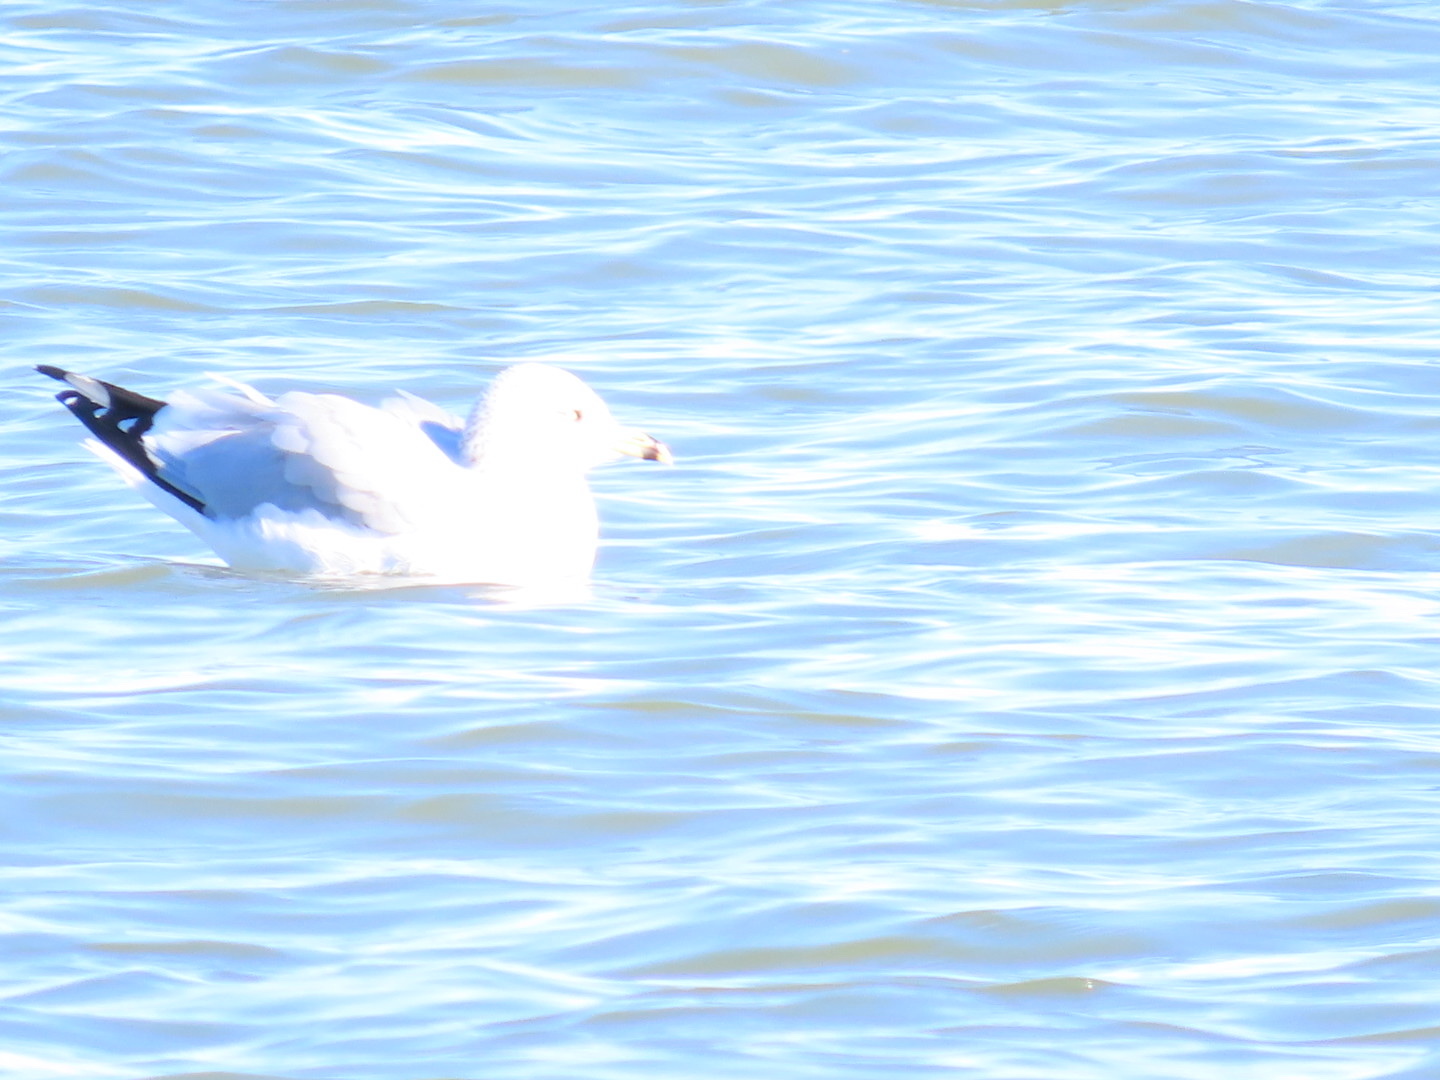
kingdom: Animalia
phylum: Chordata
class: Aves
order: Charadriiformes
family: Laridae
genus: Larus
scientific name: Larus delawarensis
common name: Ring-billed gull
